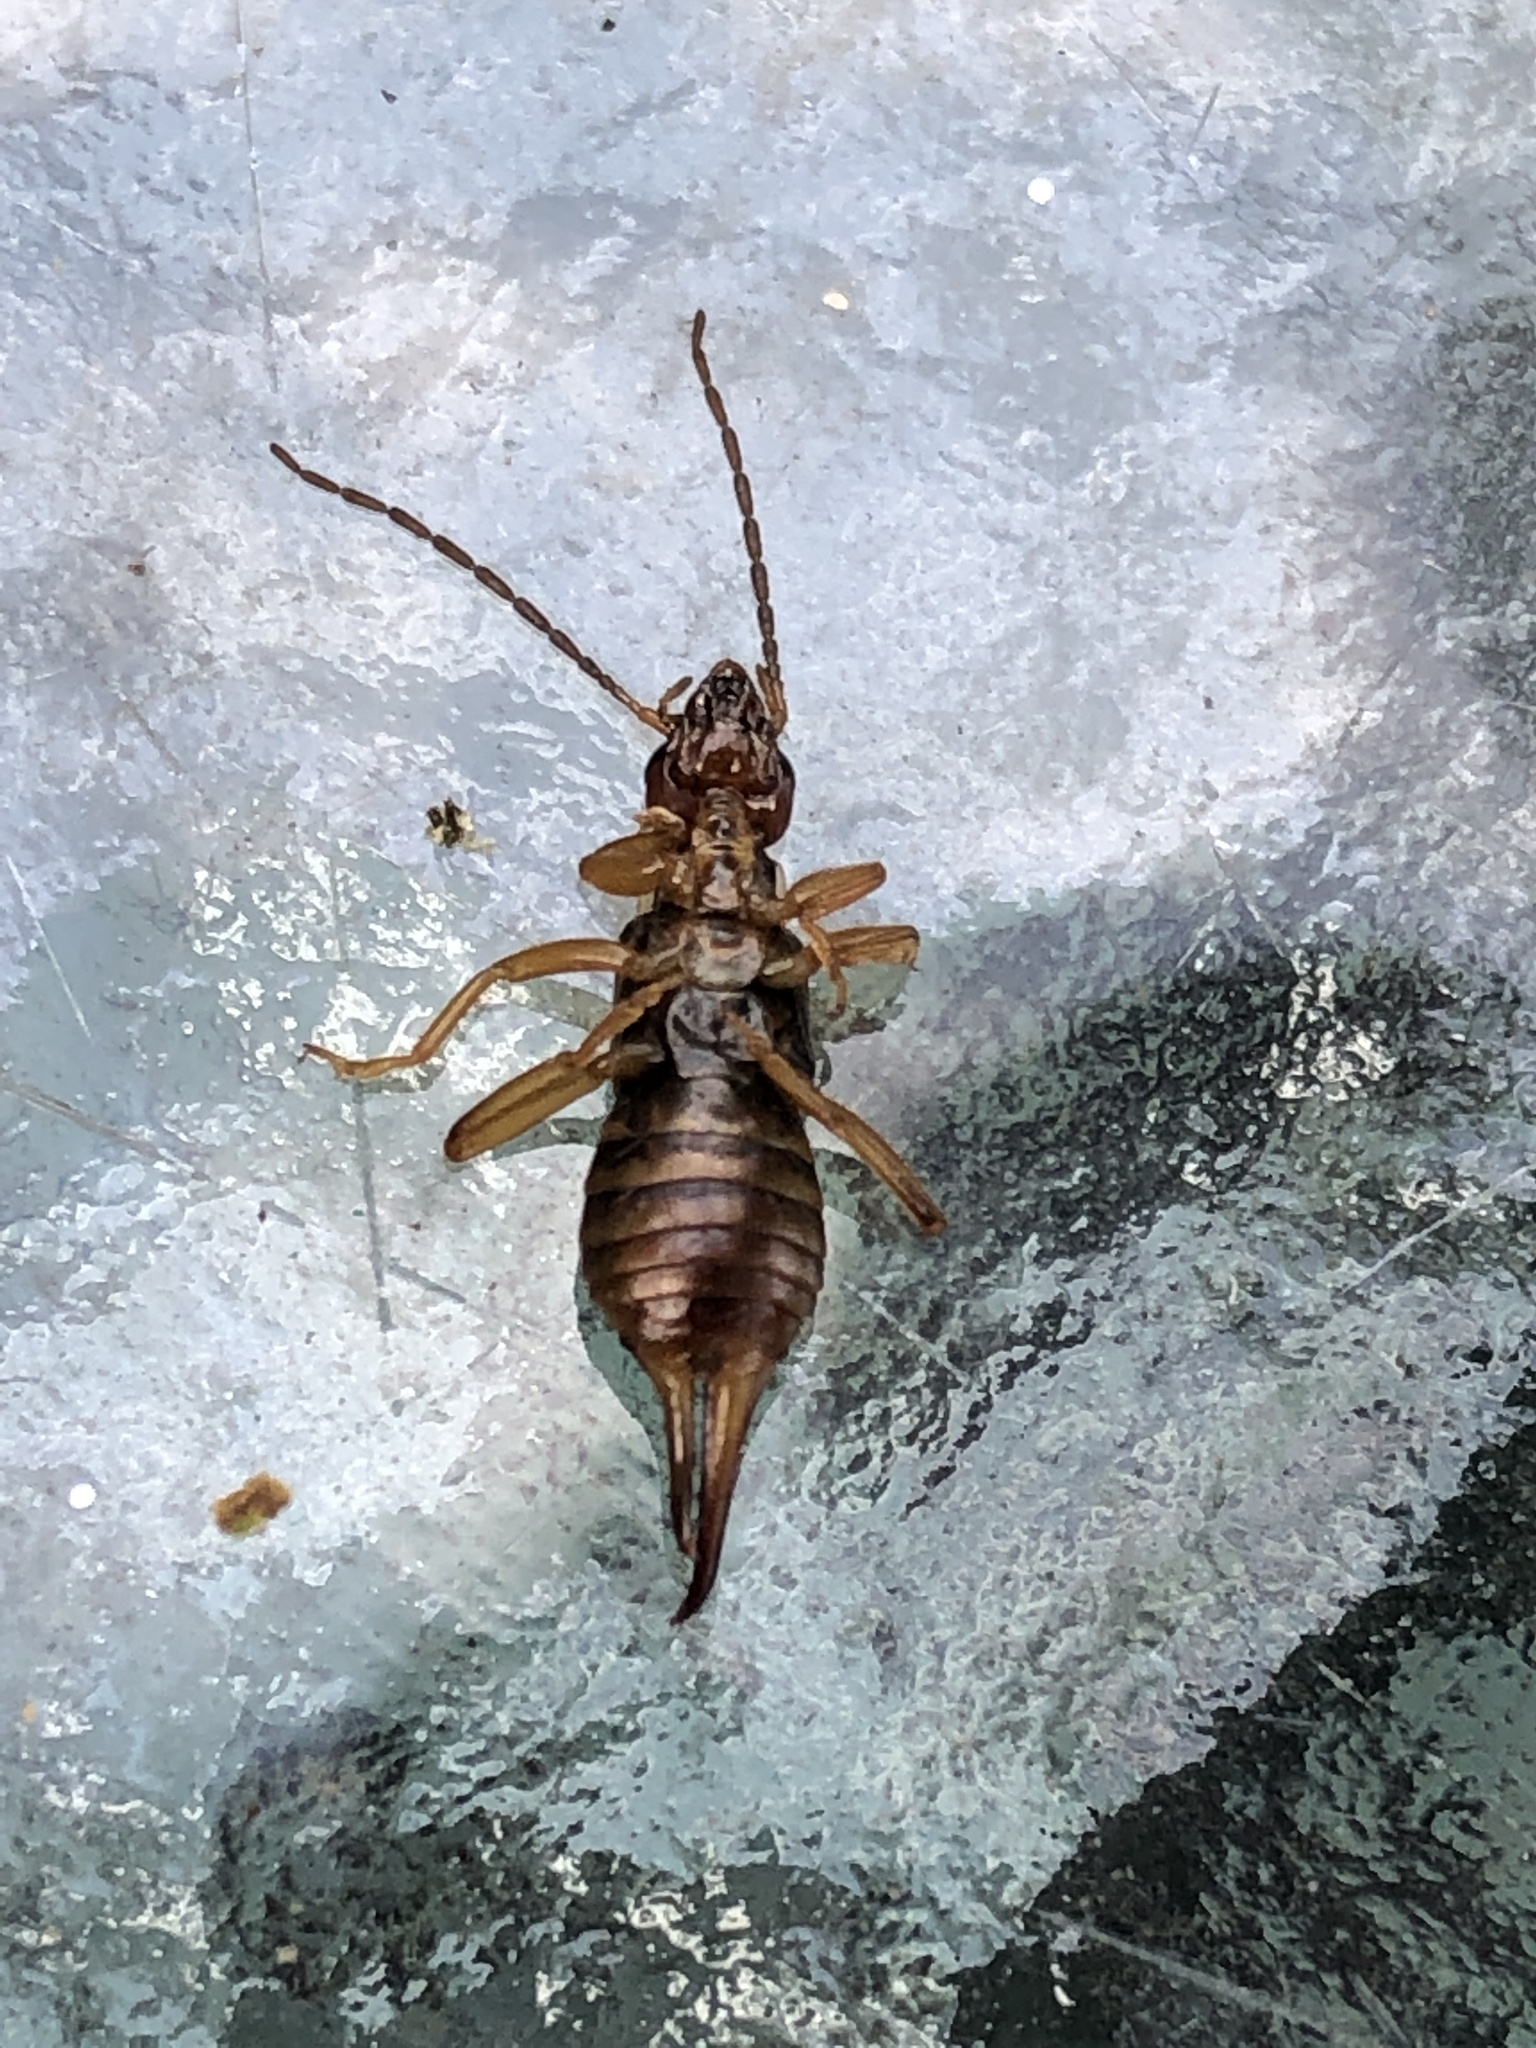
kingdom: Animalia
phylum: Arthropoda
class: Insecta
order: Dermaptera
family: Forficulidae
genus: Forficula
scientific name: Forficula
